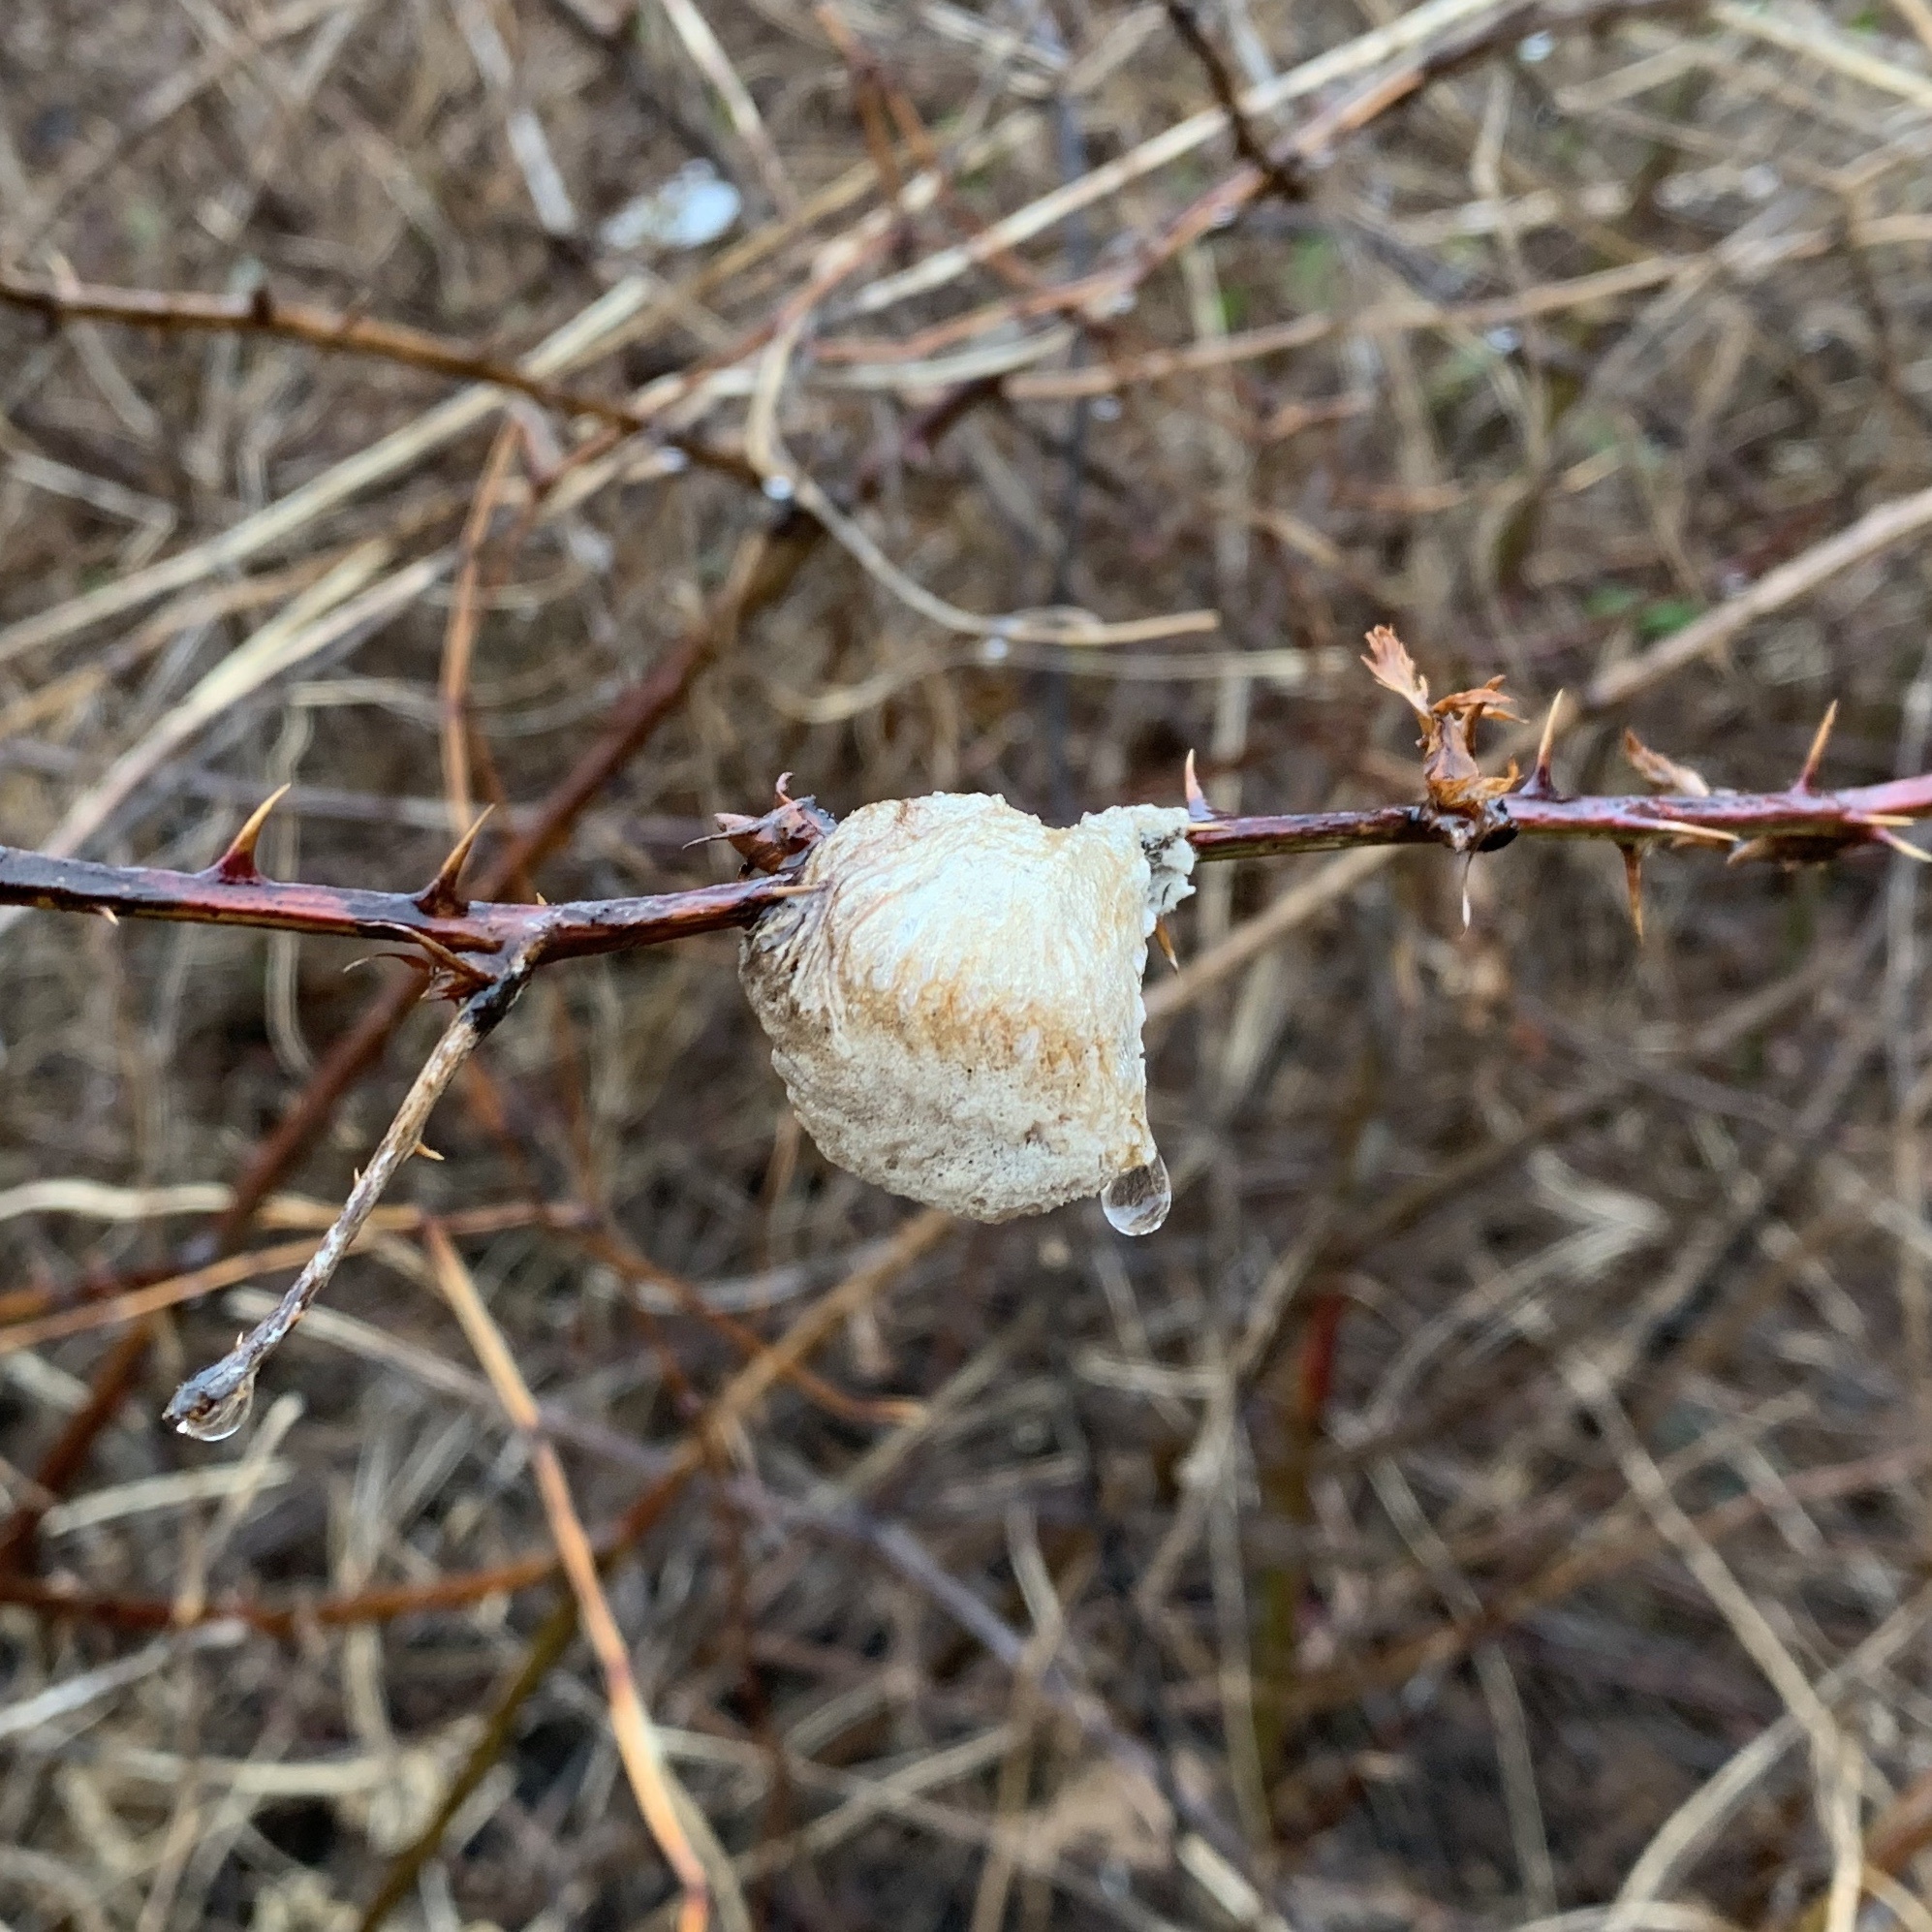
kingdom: Animalia
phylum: Arthropoda
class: Insecta
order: Mantodea
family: Mantidae
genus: Tenodera
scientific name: Tenodera sinensis
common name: Chinese mantis
